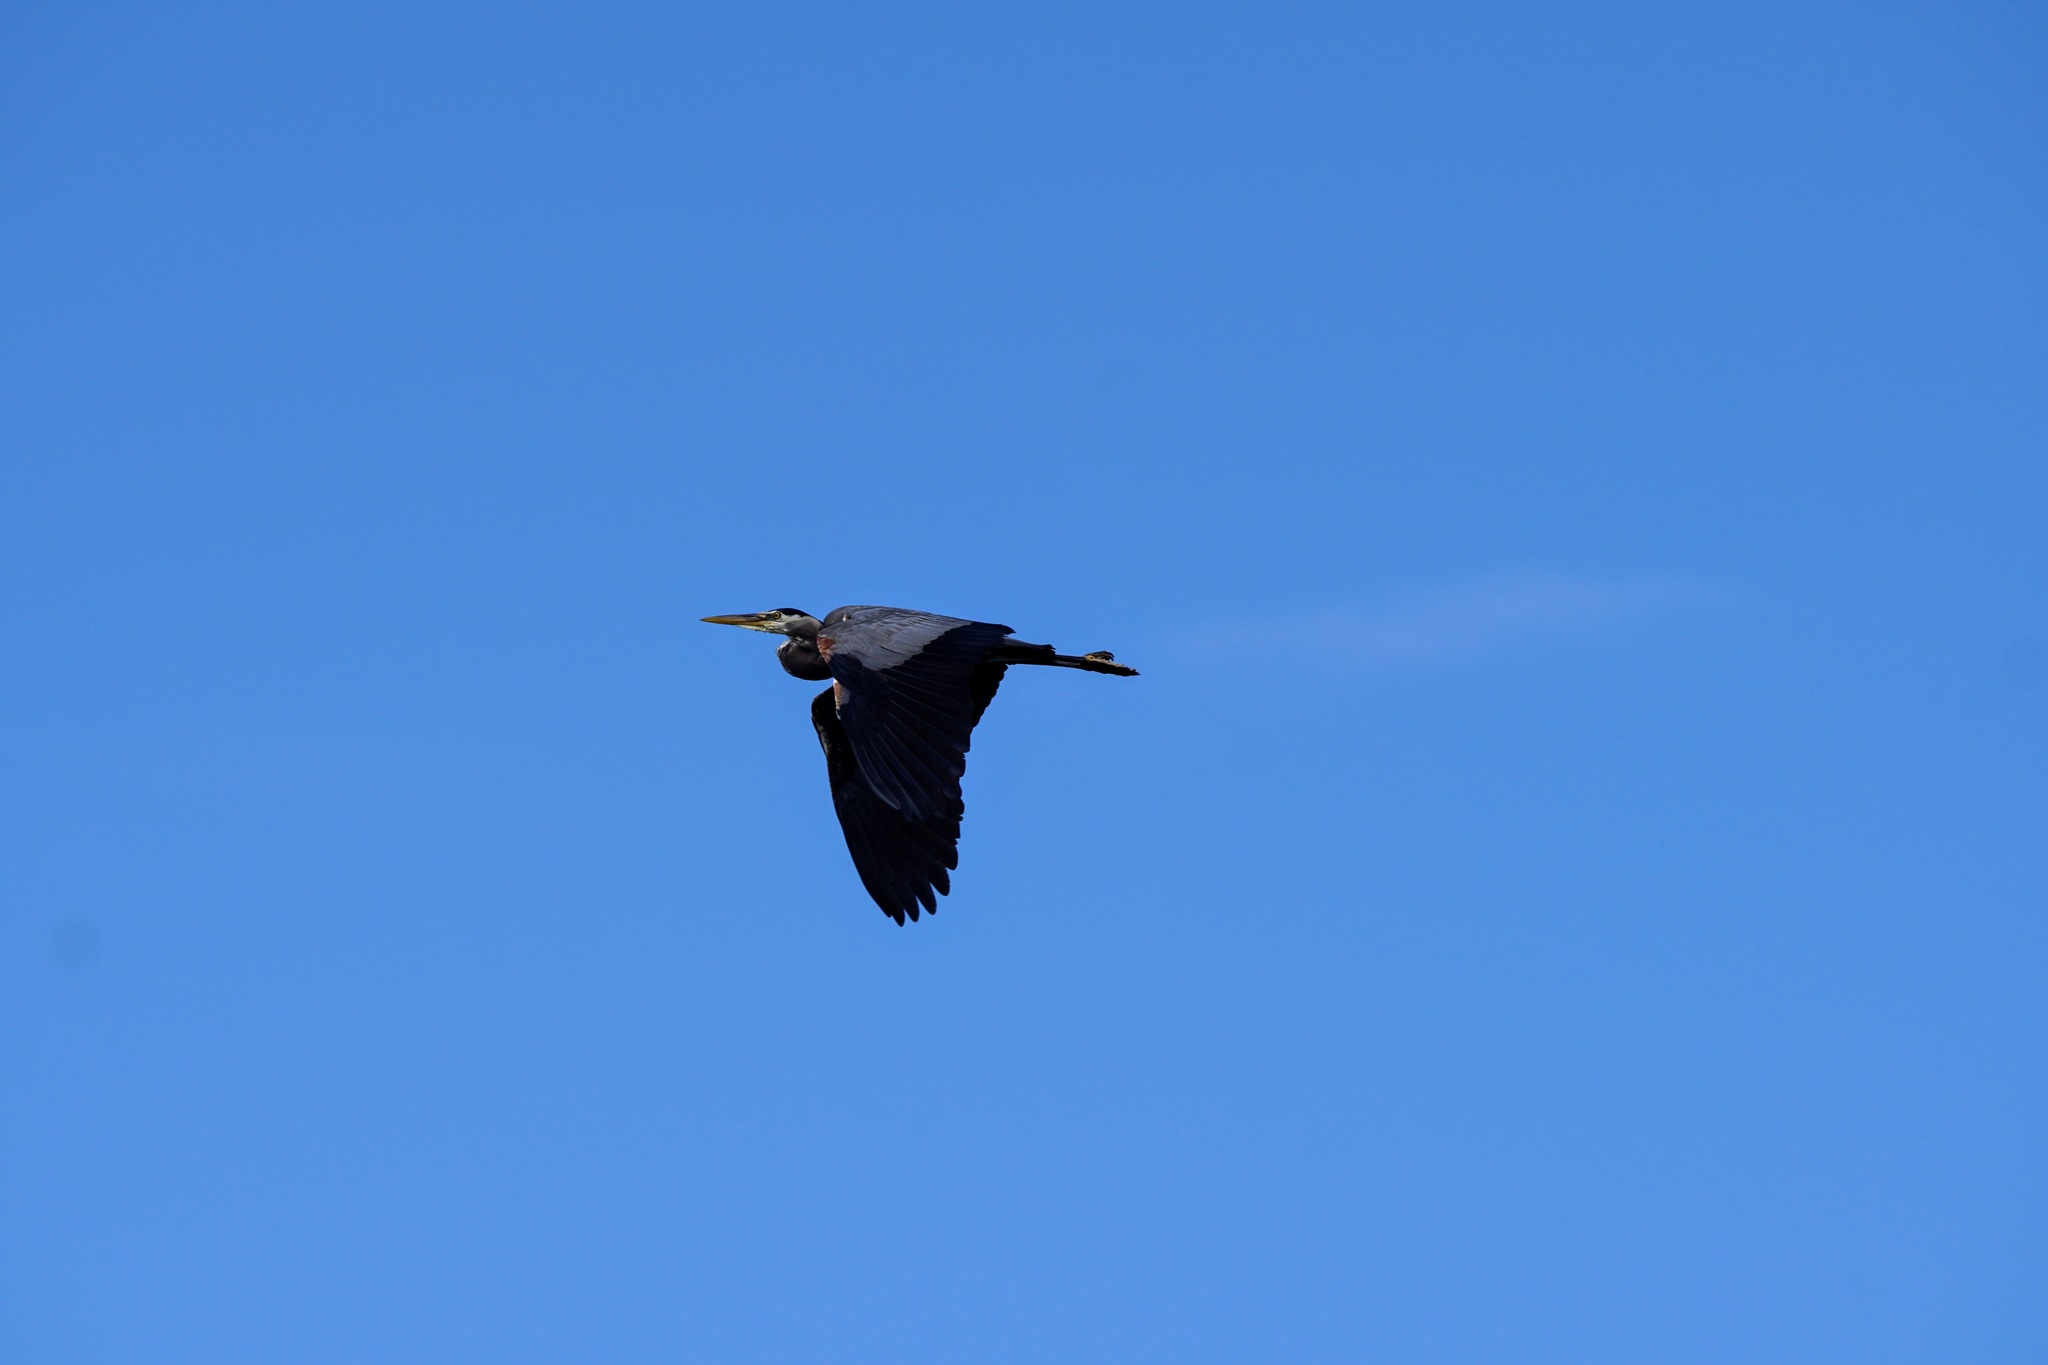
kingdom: Animalia
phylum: Chordata
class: Aves
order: Pelecaniformes
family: Ardeidae
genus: Ardea
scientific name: Ardea herodias
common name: Great blue heron
